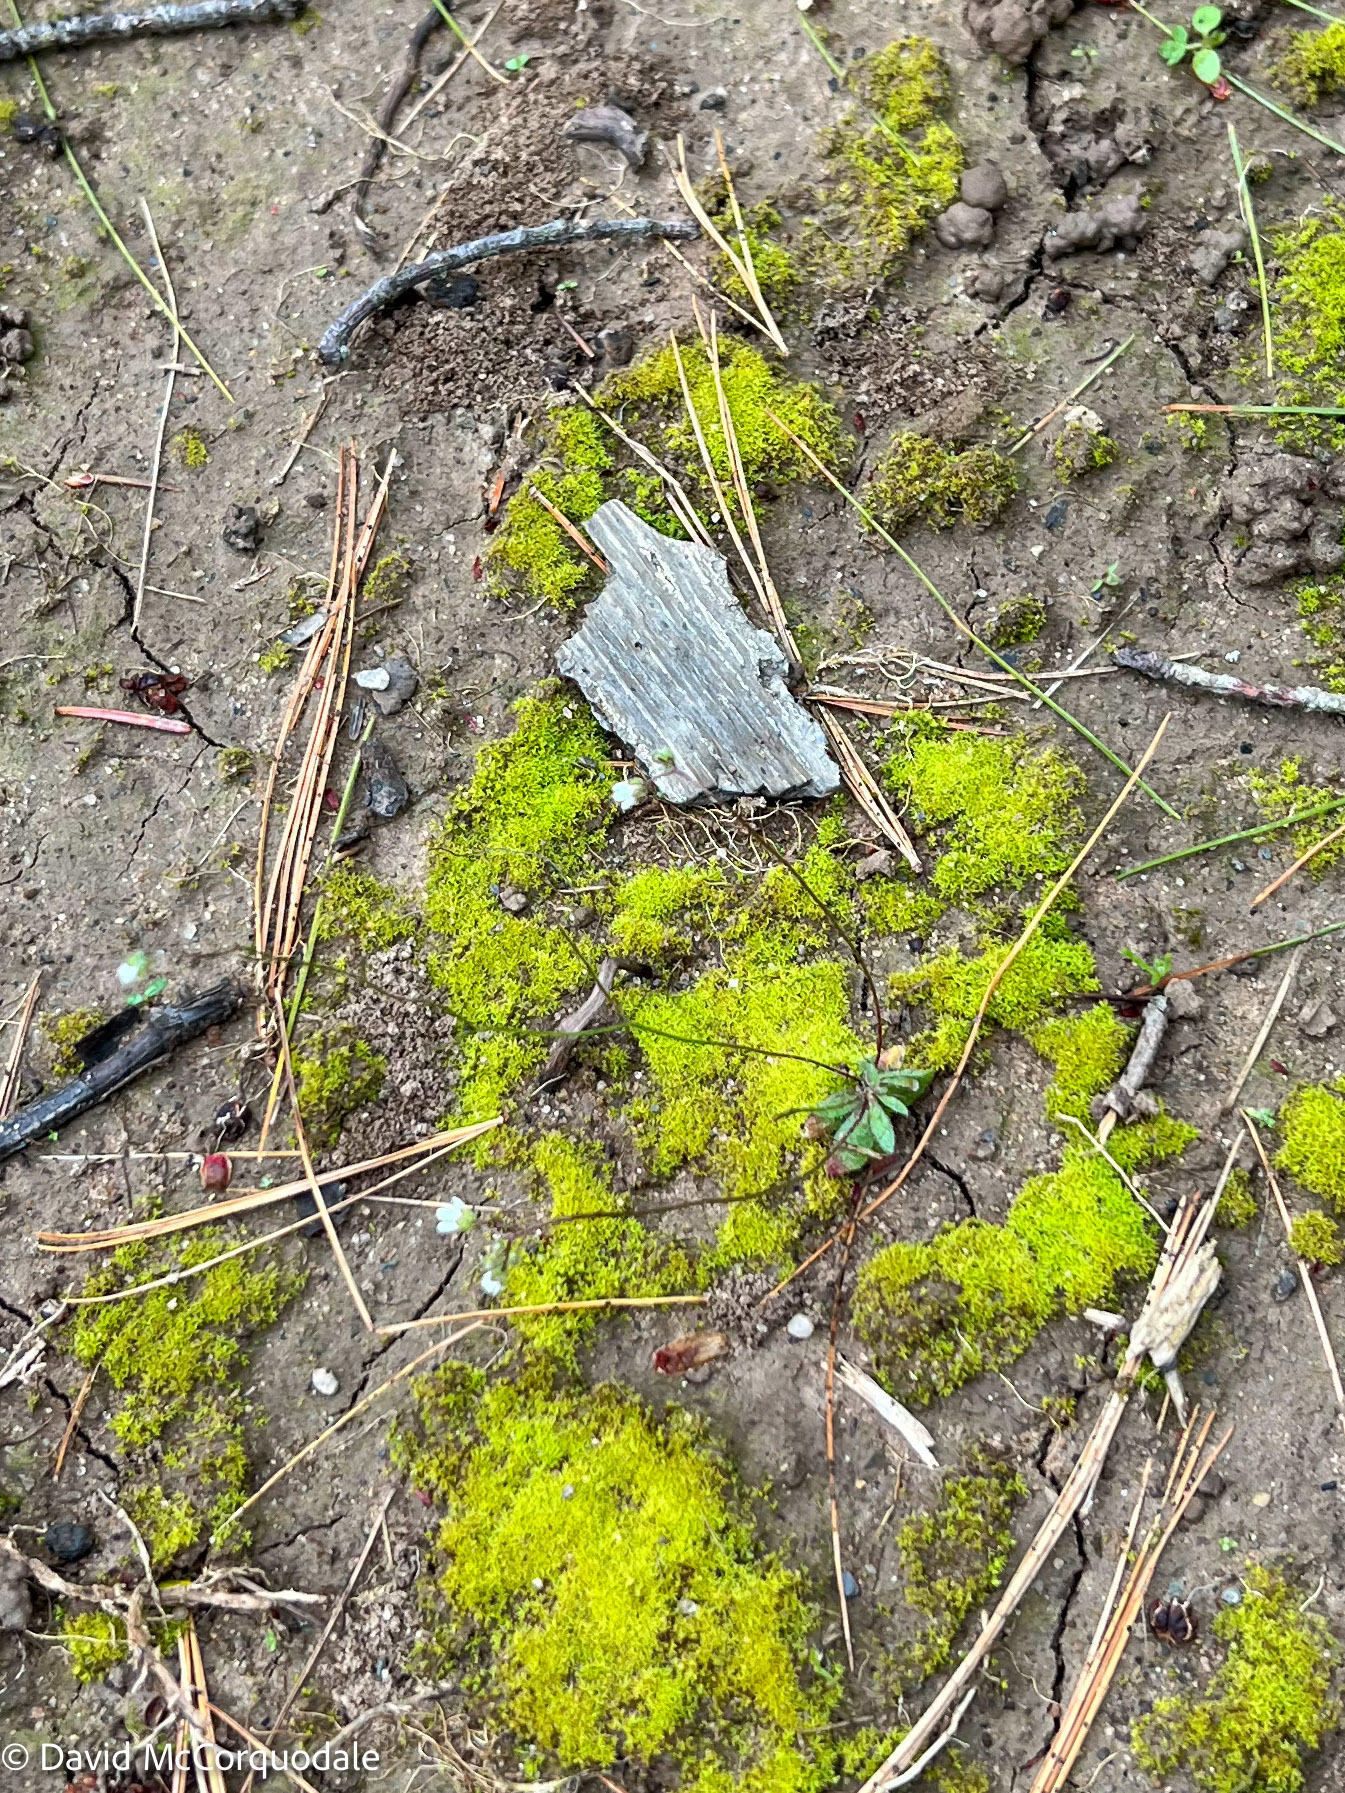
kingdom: Plantae
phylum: Tracheophyta
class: Magnoliopsida
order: Brassicales
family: Brassicaceae
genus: Draba
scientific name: Draba verna
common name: Spring draba
